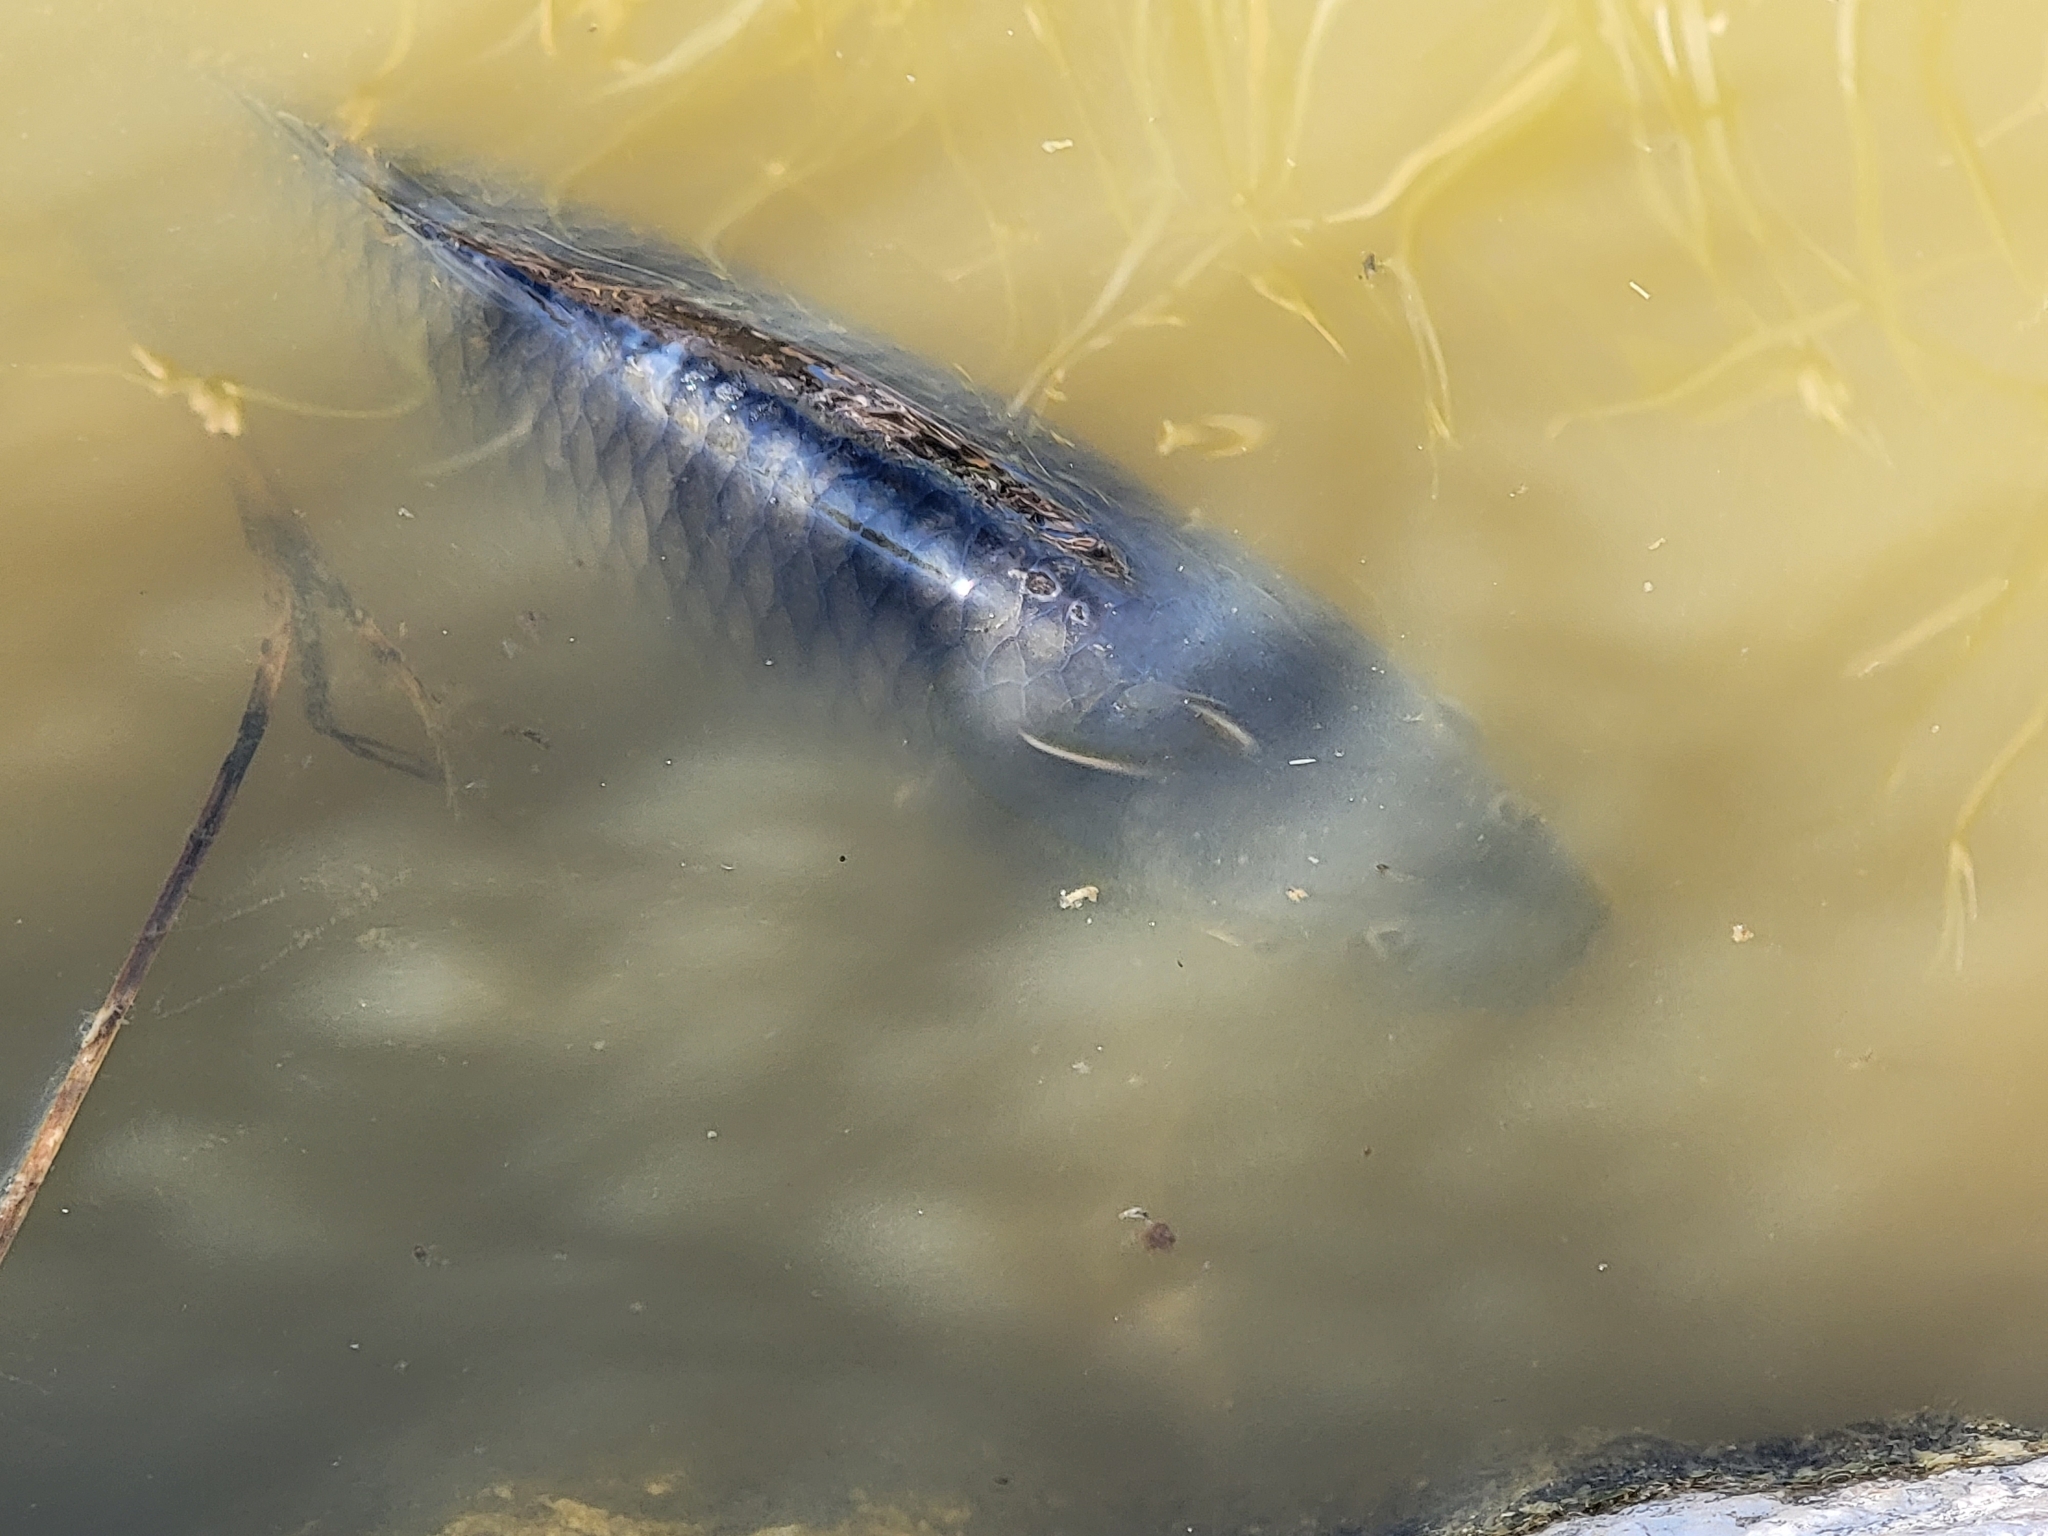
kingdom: Animalia
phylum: Chordata
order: Cypriniformes
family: Cyprinidae
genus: Cyprinus
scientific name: Cyprinus carpio
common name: Common carp
